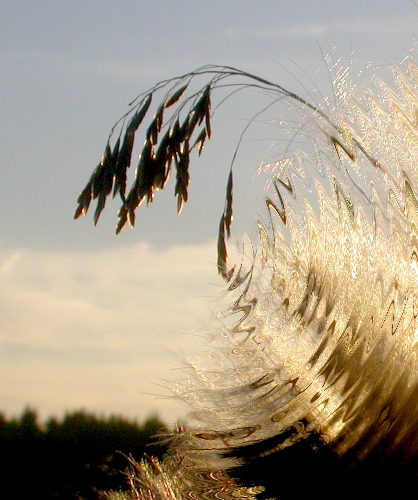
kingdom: Plantae
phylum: Tracheophyta
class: Liliopsida
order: Poales
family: Poaceae
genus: Lolium
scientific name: Lolium arundinaceum
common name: Reed fescue
